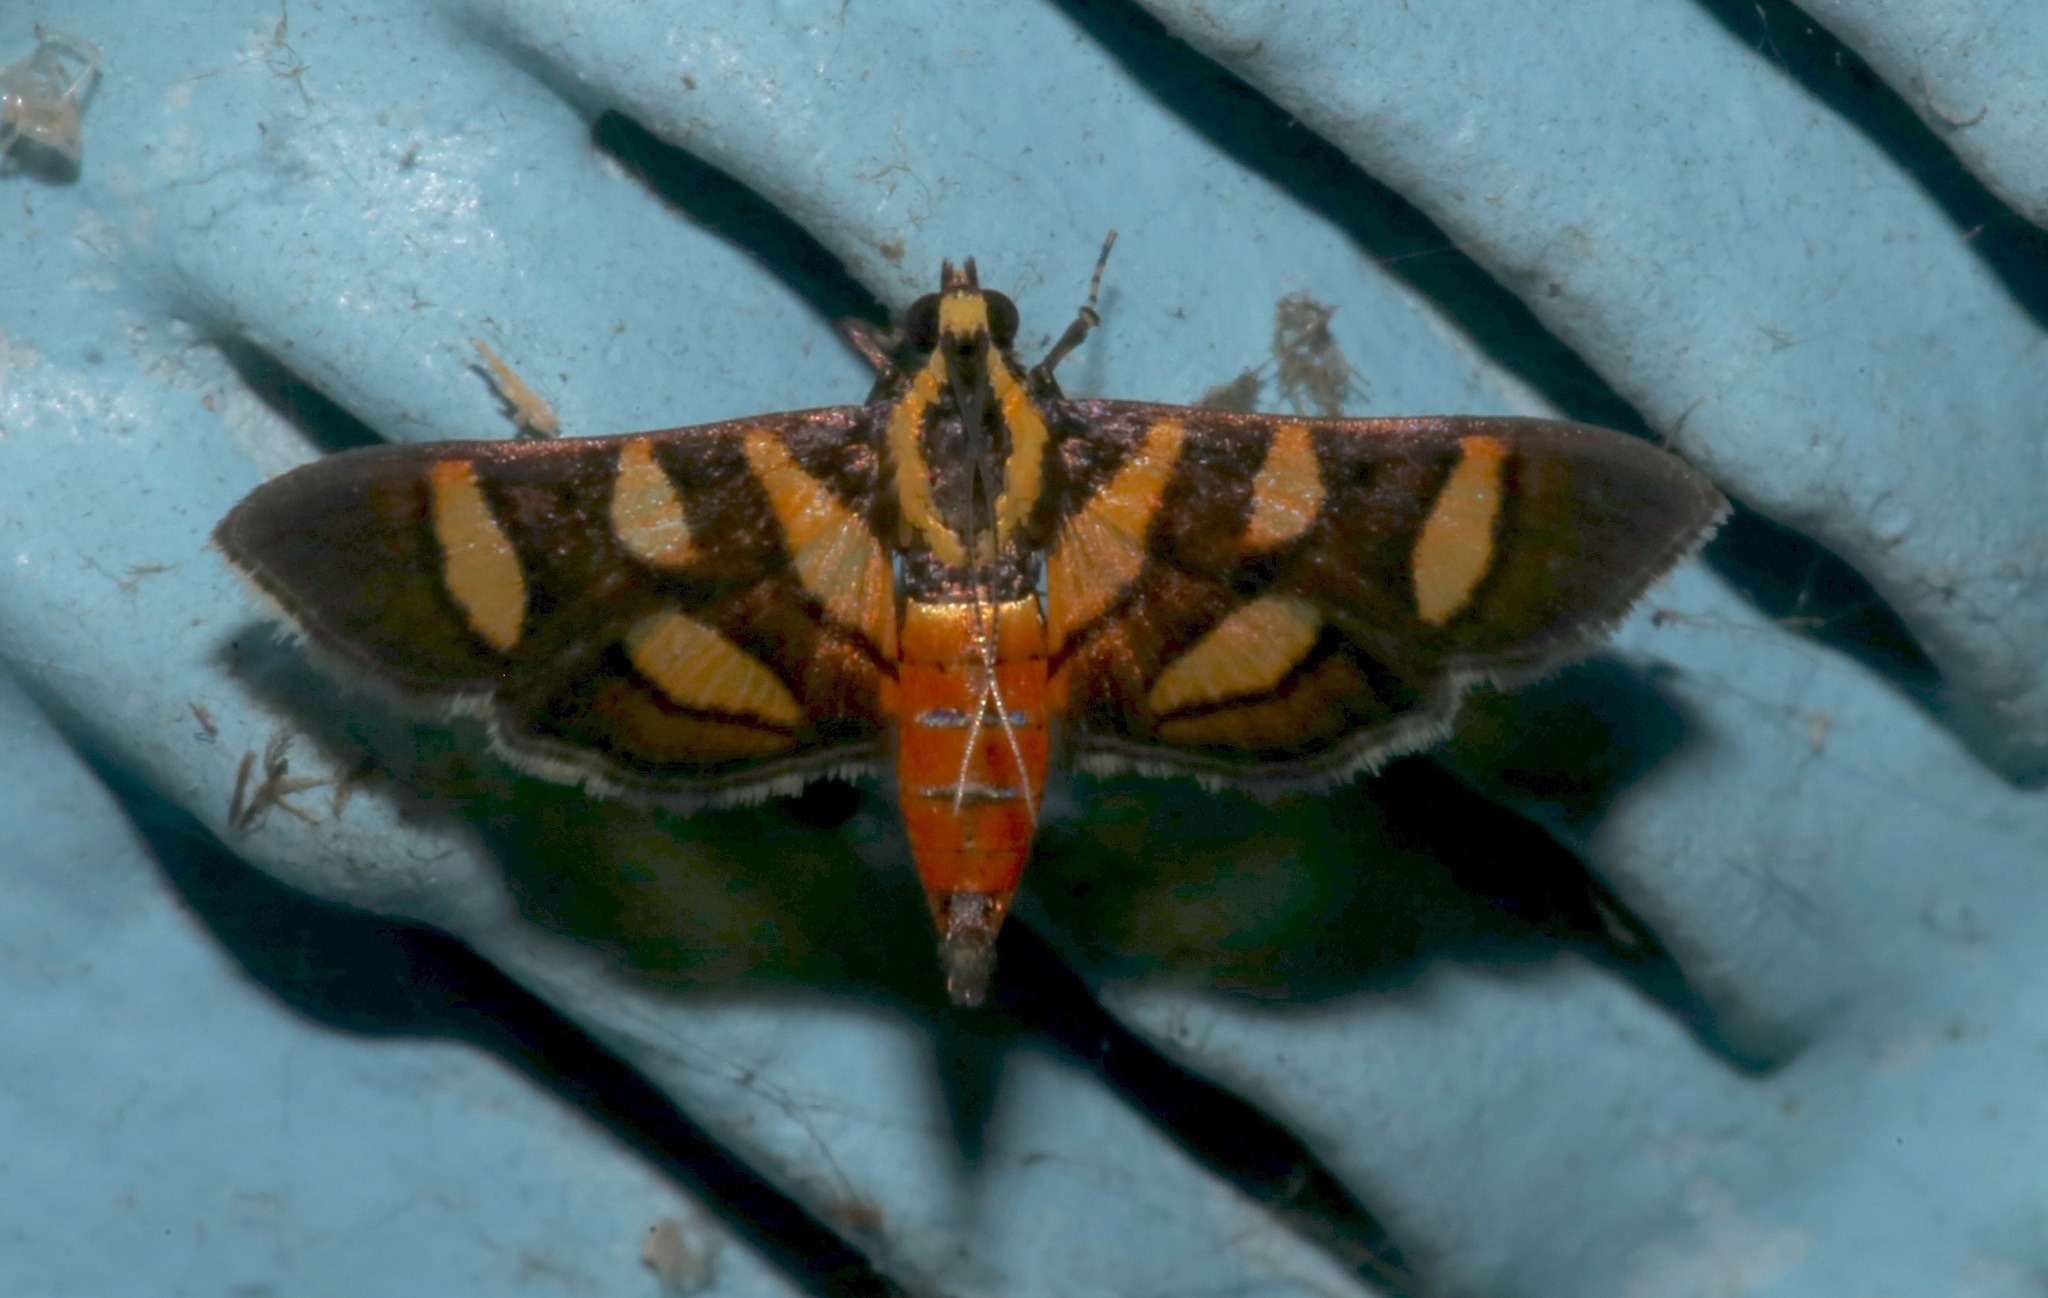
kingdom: Animalia
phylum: Arthropoda
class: Insecta
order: Lepidoptera
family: Crambidae
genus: Syngamia
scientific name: Syngamia florella
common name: Orange-spotted flower moth
